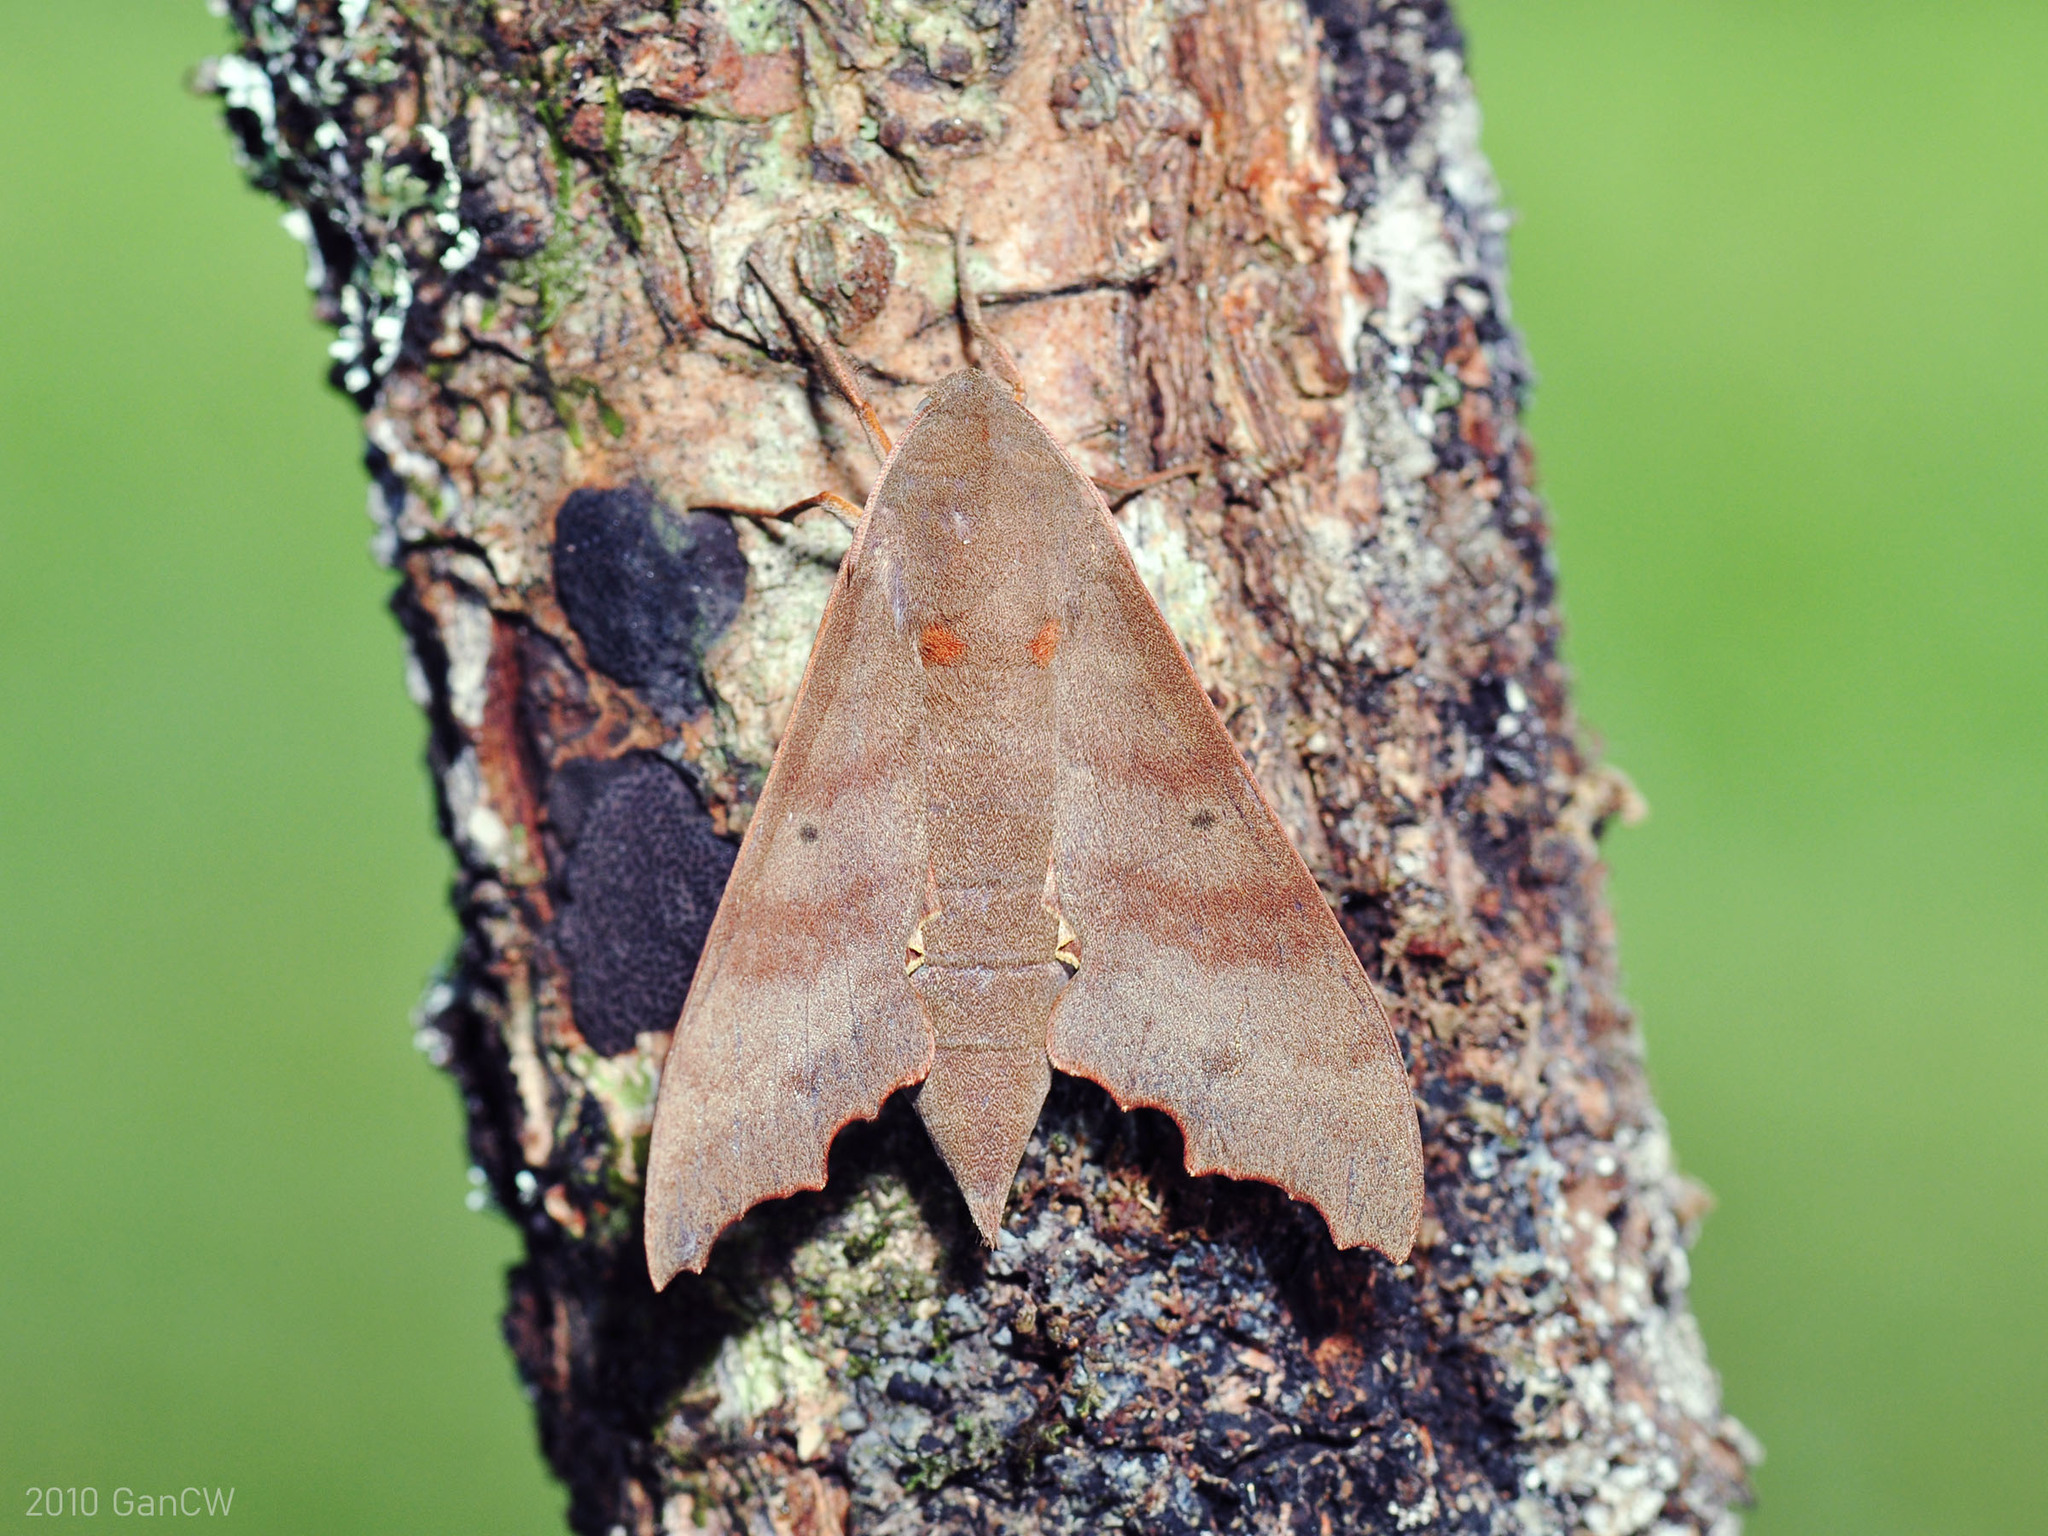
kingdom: Animalia
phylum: Arthropoda
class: Insecta
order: Lepidoptera
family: Sphingidae
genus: Cypa
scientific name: Cypa decolor
